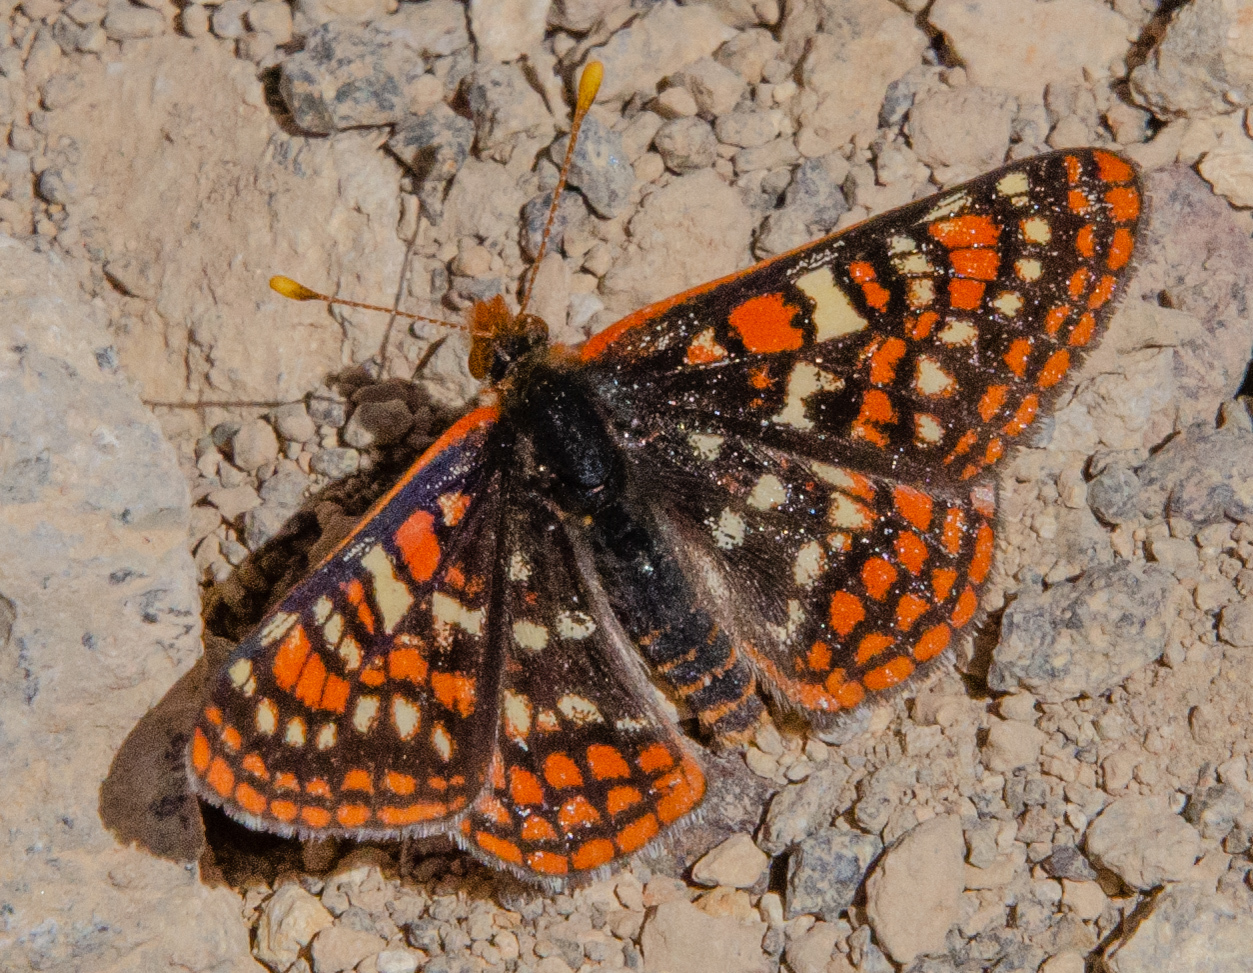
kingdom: Animalia
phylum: Arthropoda
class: Insecta
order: Lepidoptera
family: Nymphalidae
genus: Occidryas
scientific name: Occidryas editha
